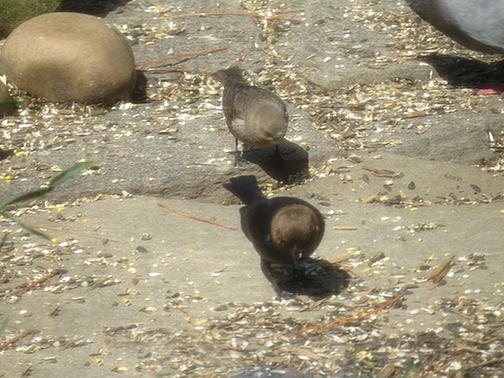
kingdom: Animalia
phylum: Chordata
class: Aves
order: Passeriformes
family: Icteridae
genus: Molothrus
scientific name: Molothrus ater
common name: Brown-headed cowbird
